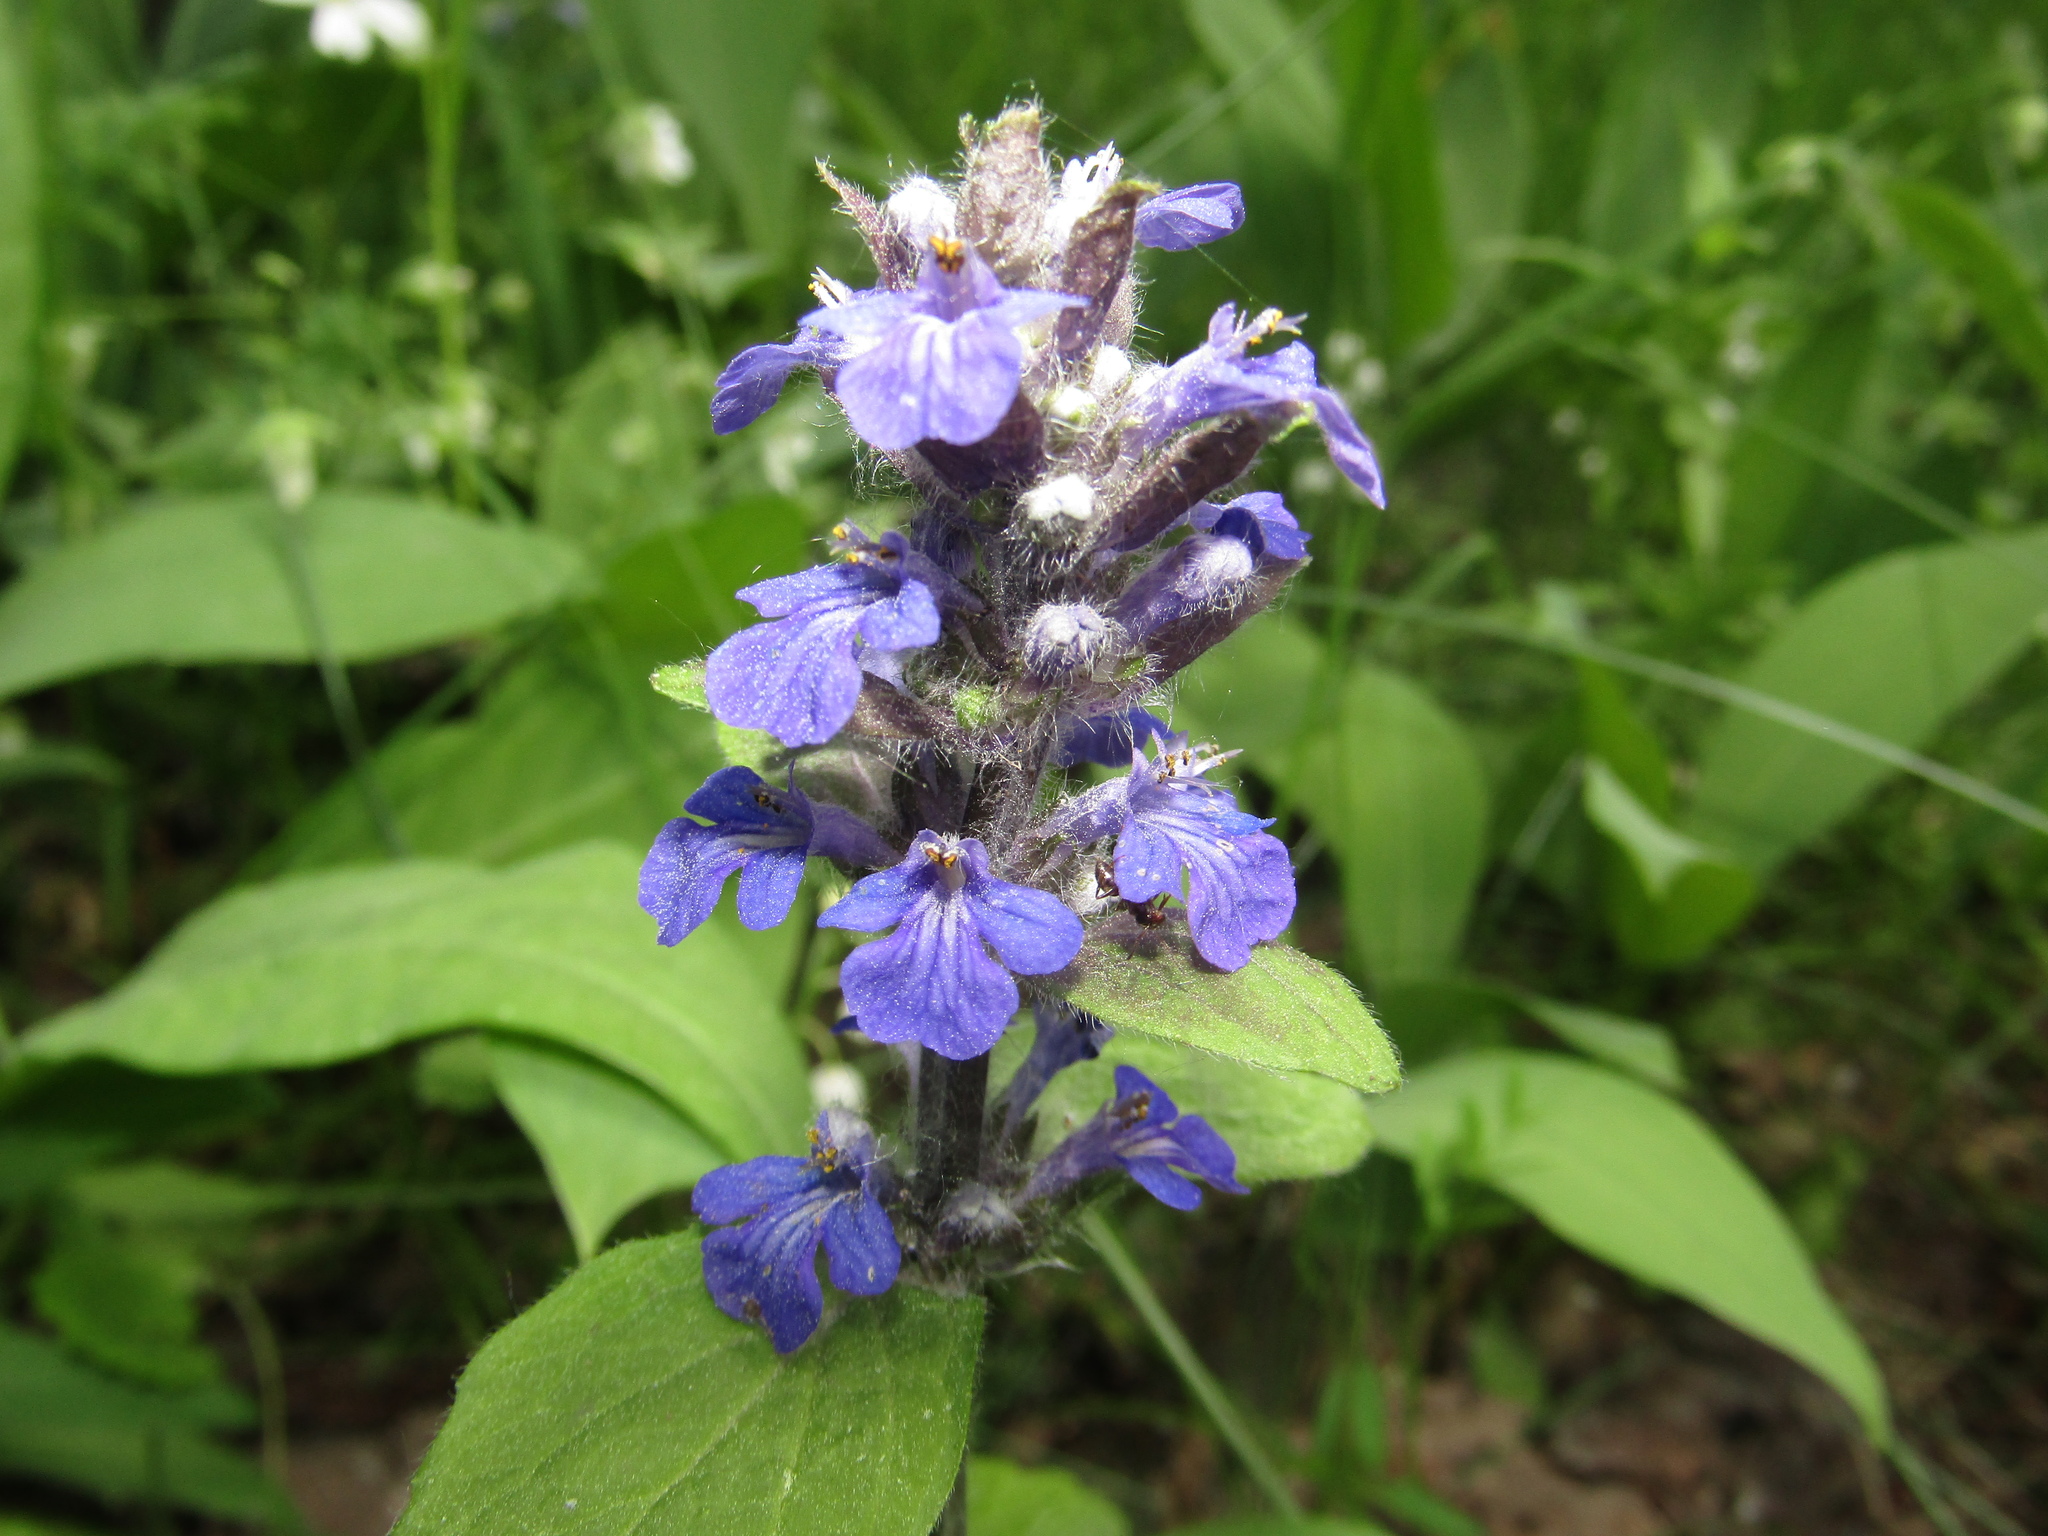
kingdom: Plantae
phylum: Tracheophyta
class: Magnoliopsida
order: Lamiales
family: Lamiaceae
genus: Ajuga
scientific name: Ajuga reptans
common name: Bugle
